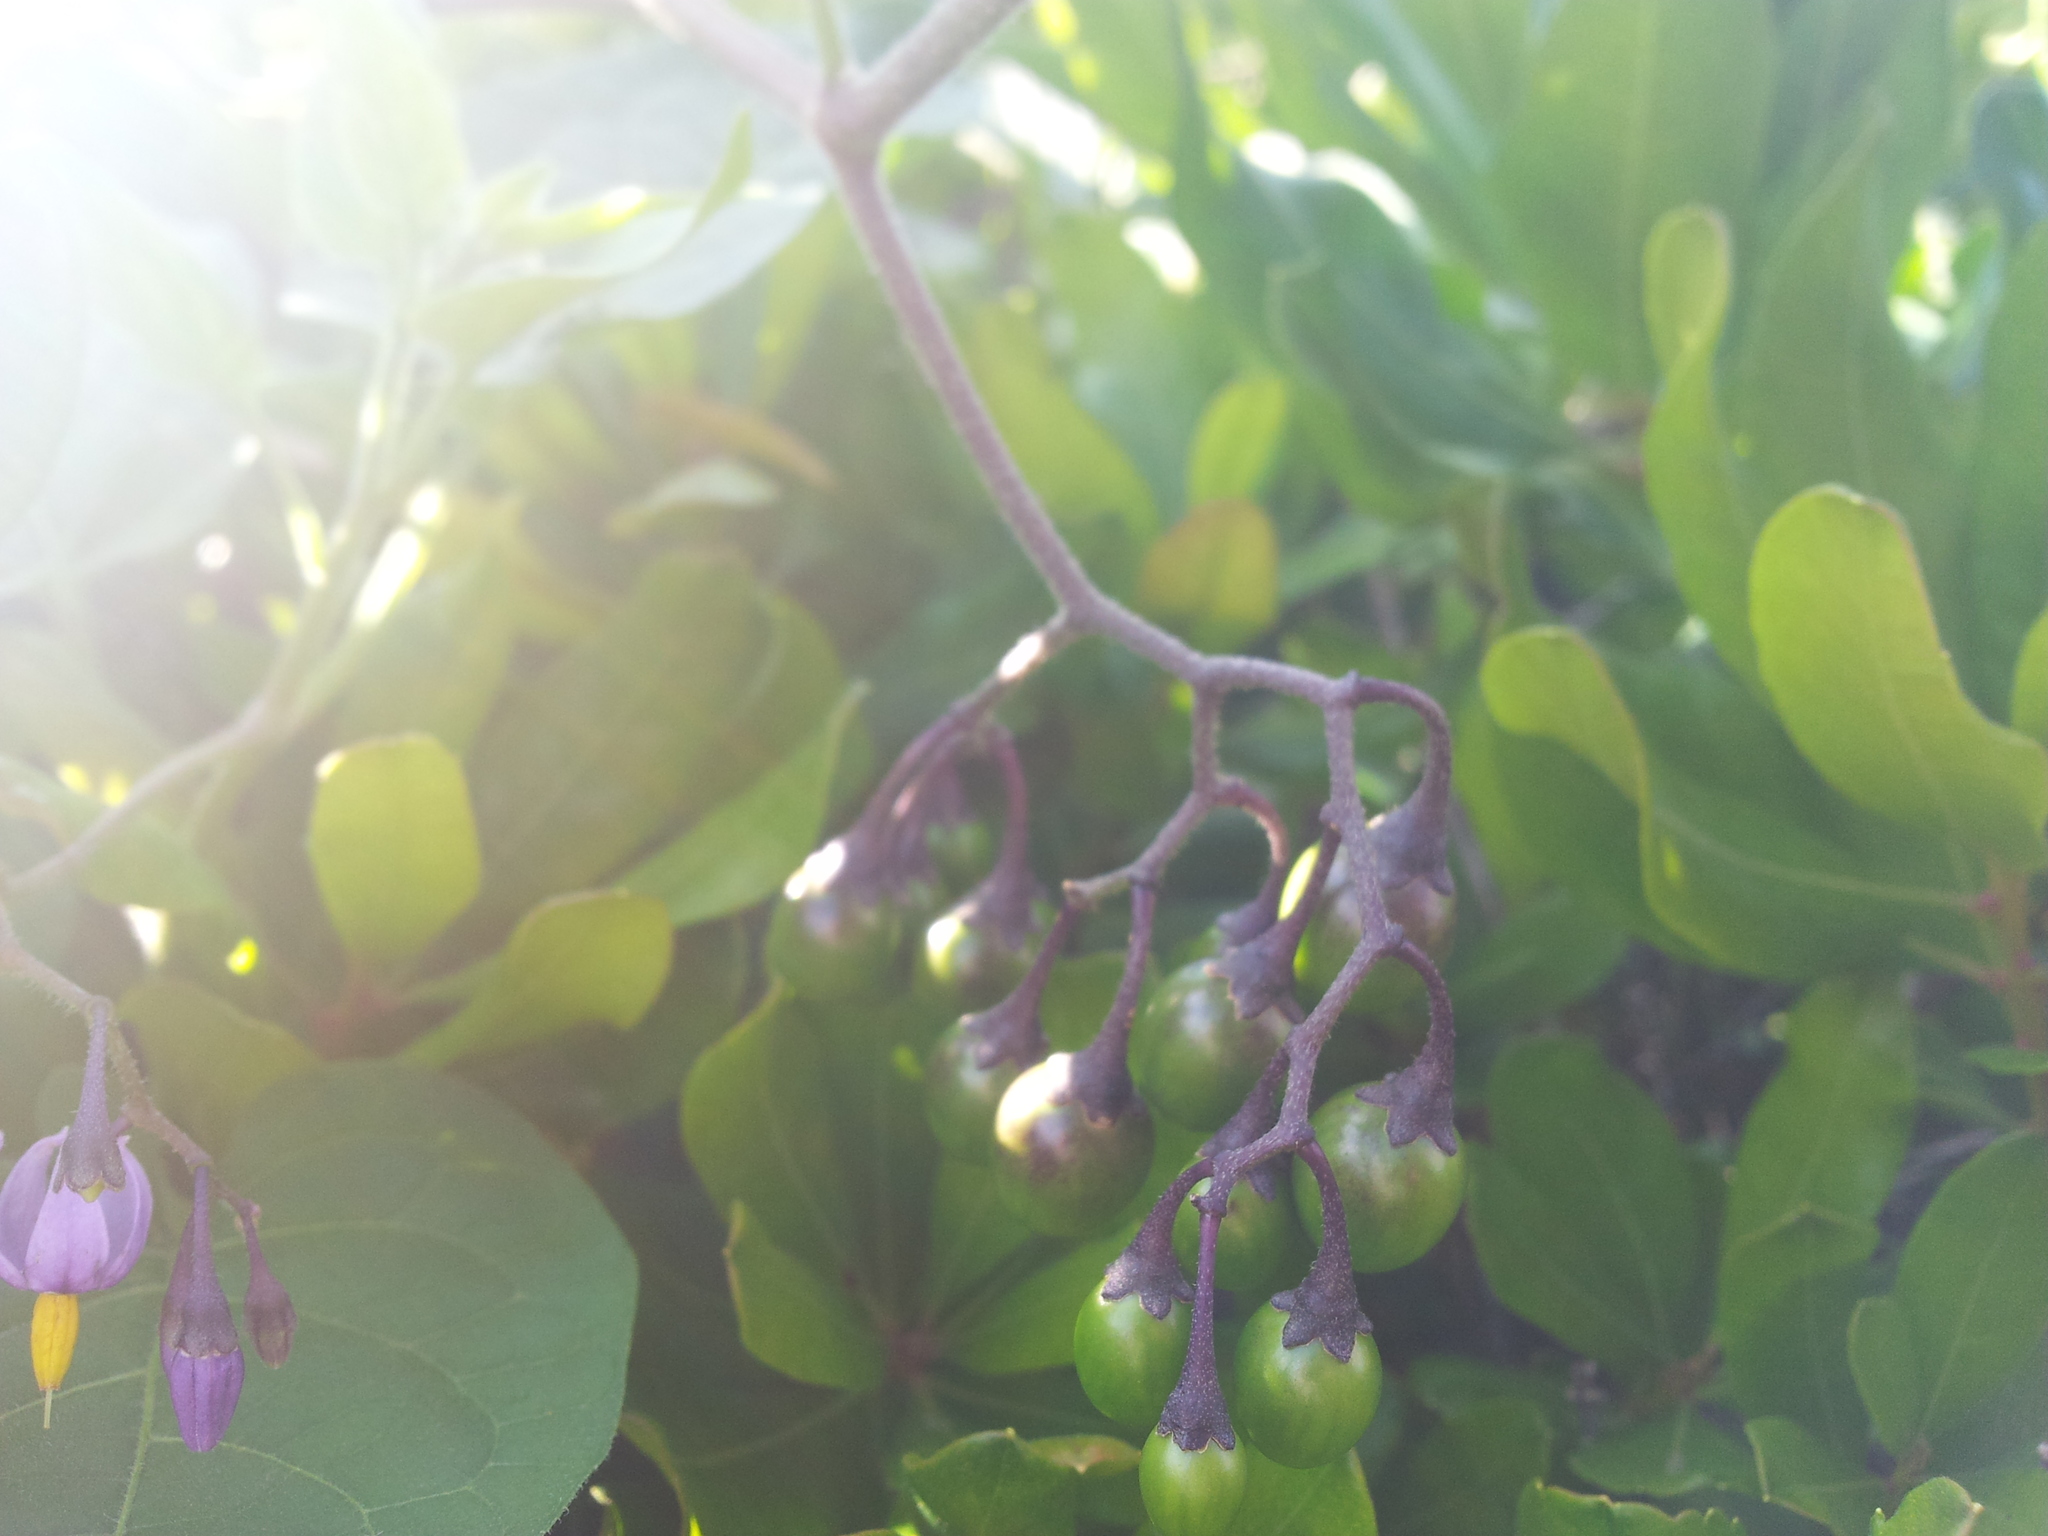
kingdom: Plantae
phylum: Tracheophyta
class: Magnoliopsida
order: Solanales
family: Solanaceae
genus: Solanum
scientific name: Solanum dulcamara
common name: Climbing nightshade
